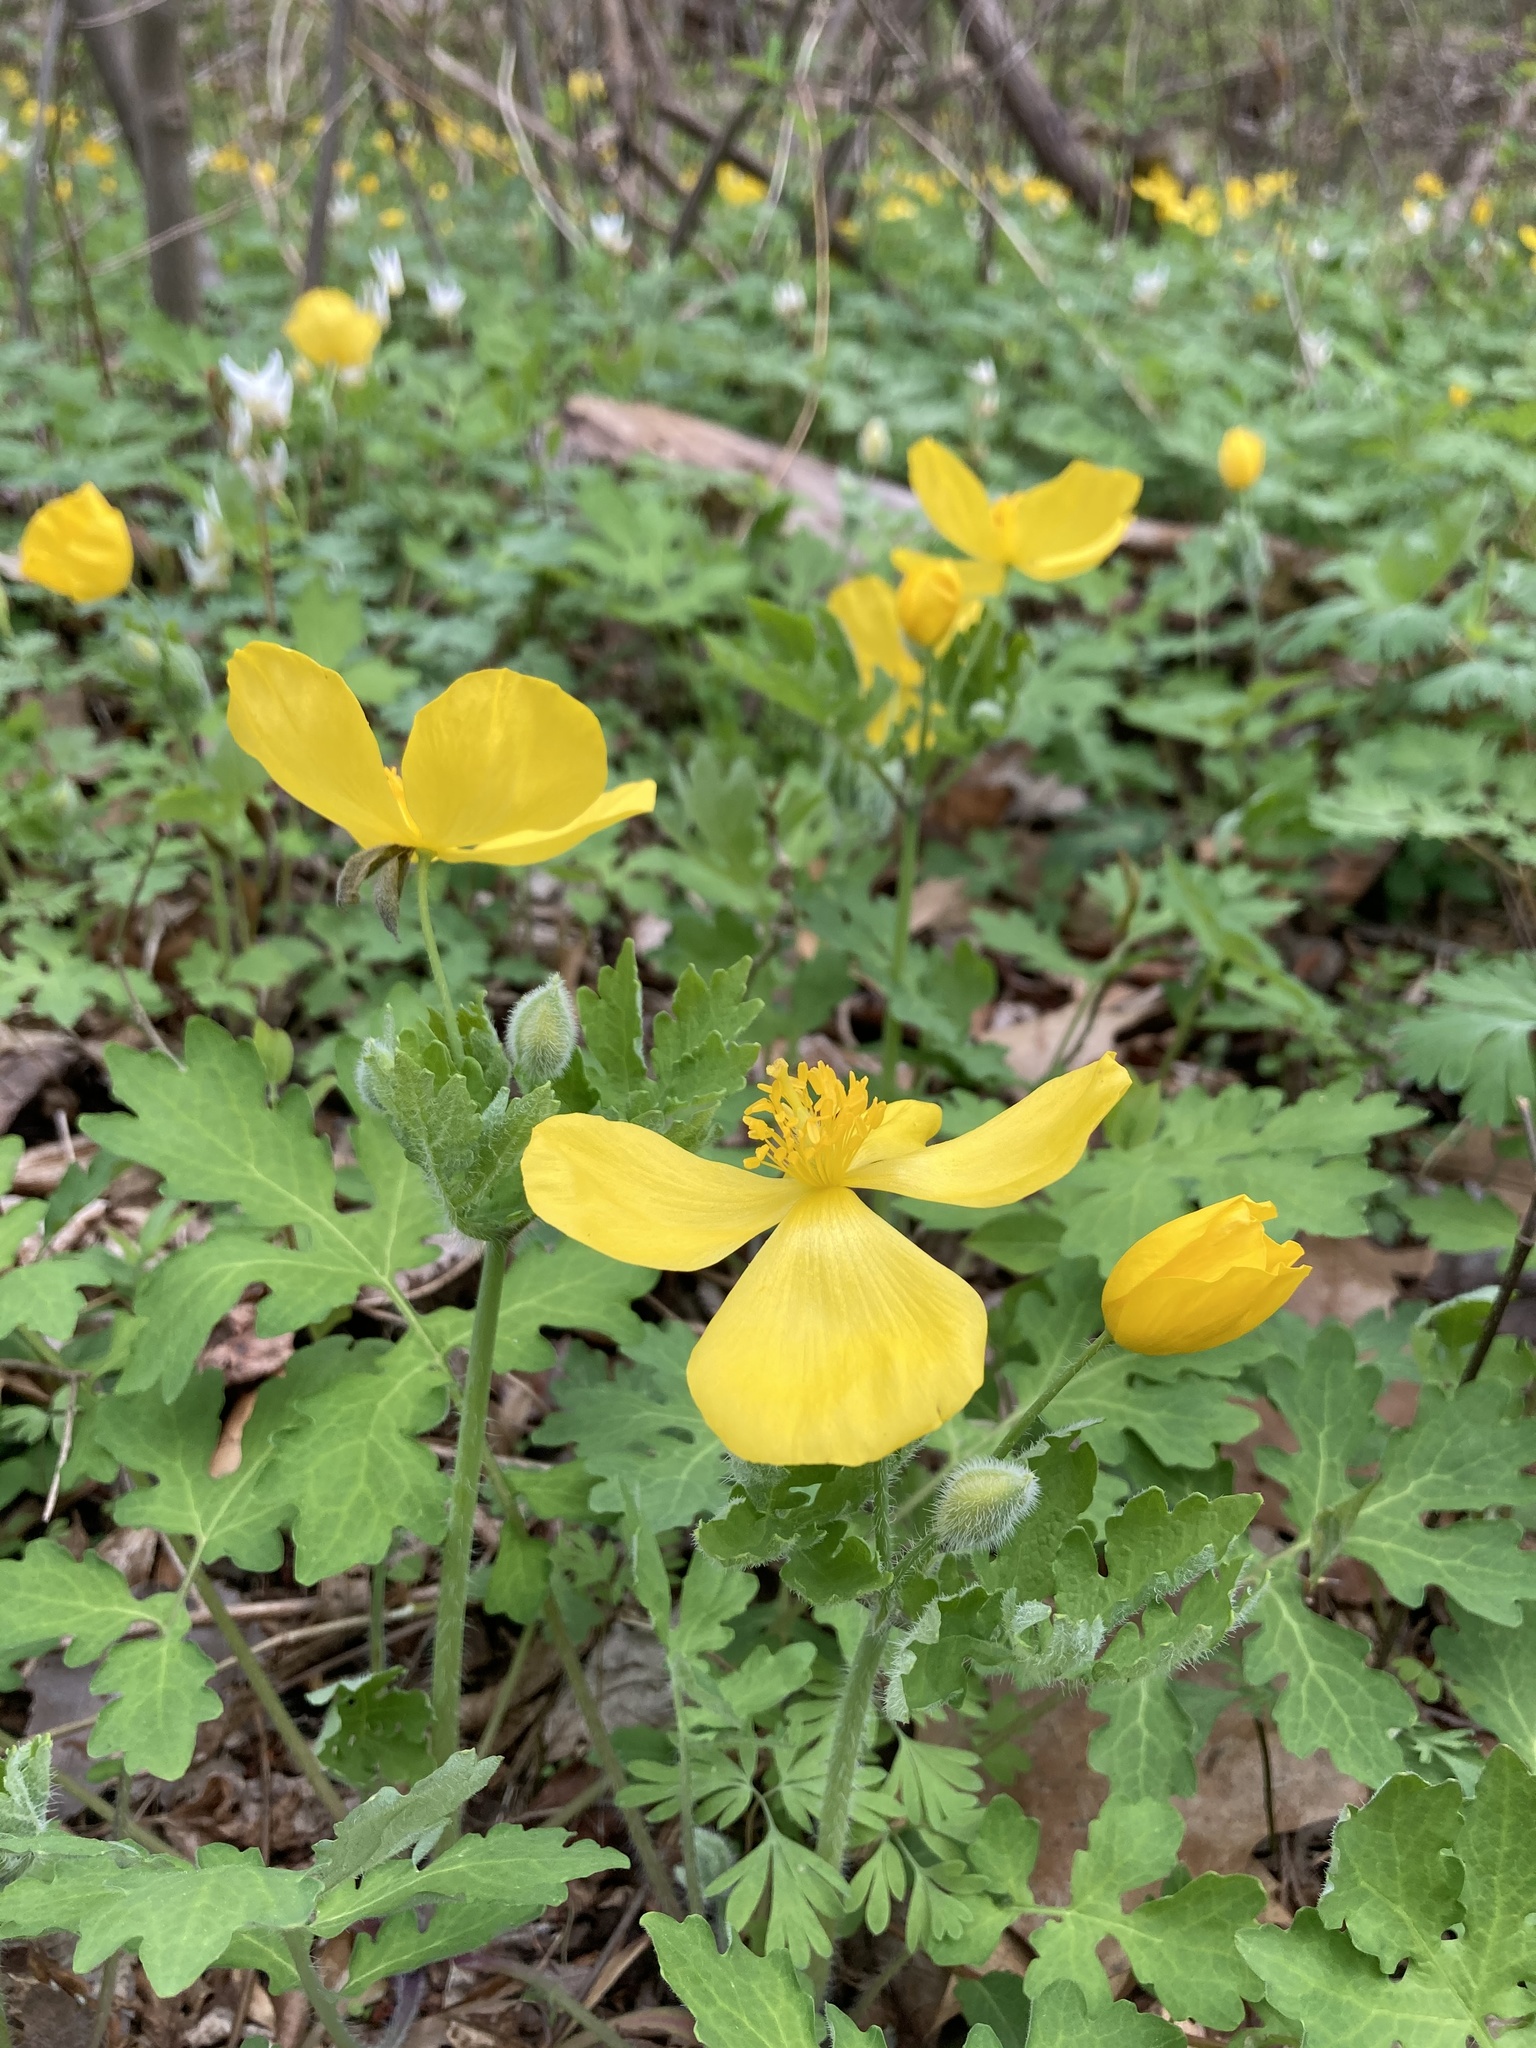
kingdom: Plantae
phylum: Tracheophyta
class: Magnoliopsida
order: Ranunculales
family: Papaveraceae
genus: Stylophorum
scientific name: Stylophorum diphyllum
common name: Celandine poppy
